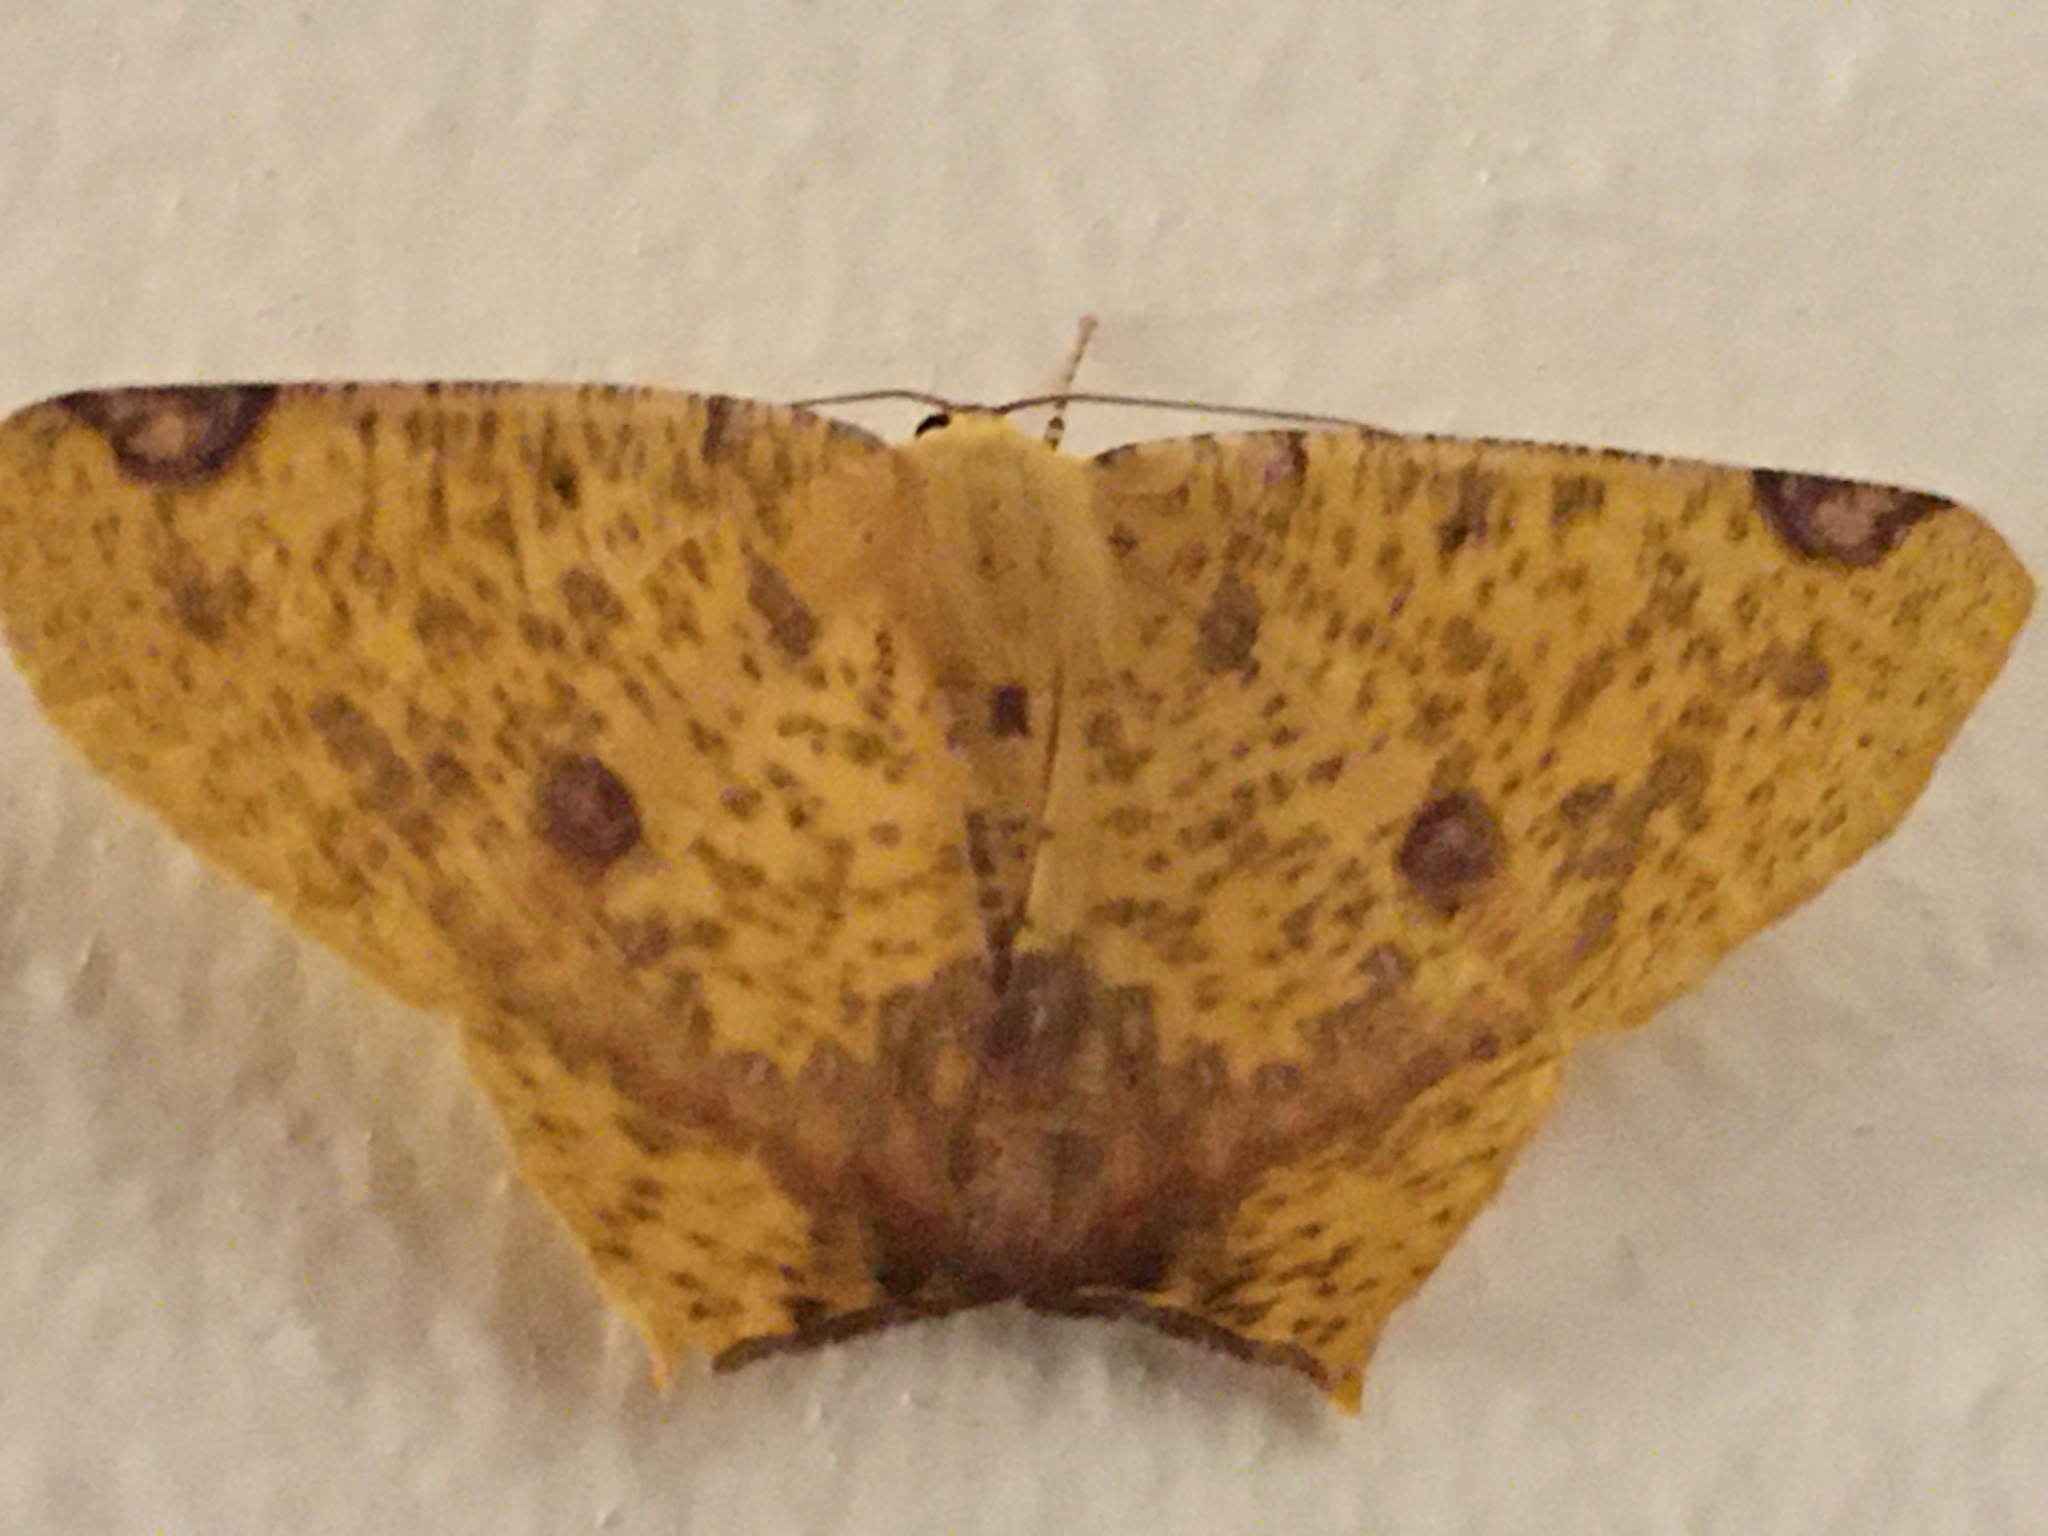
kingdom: Animalia
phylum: Arthropoda
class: Insecta
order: Lepidoptera
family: Geometridae
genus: Nepheloleuca
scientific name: Nepheloleuca politia
